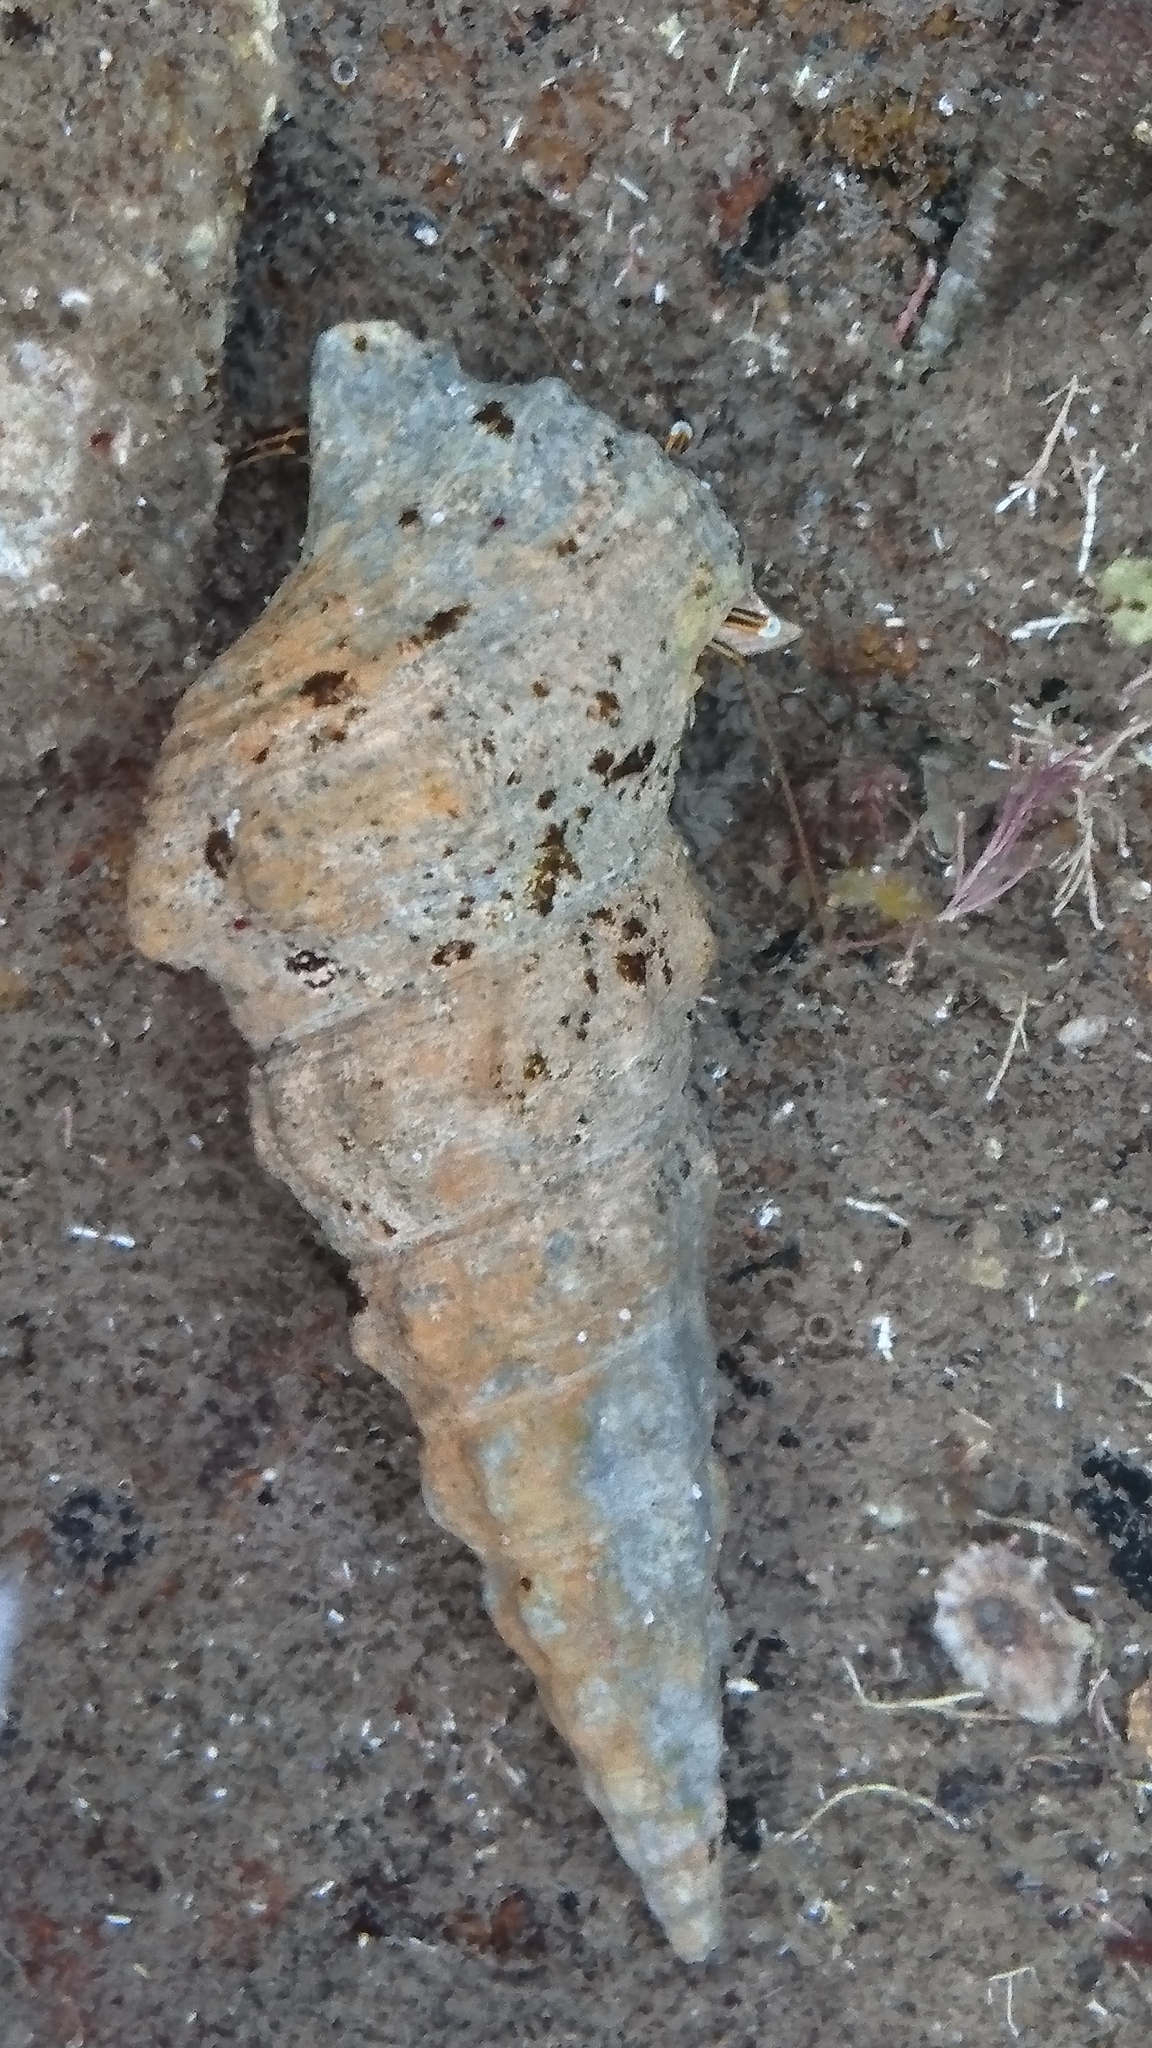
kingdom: Animalia
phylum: Arthropoda
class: Malacostraca
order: Decapoda
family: Diogenidae
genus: Clibanarius
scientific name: Clibanarius taeniatus
